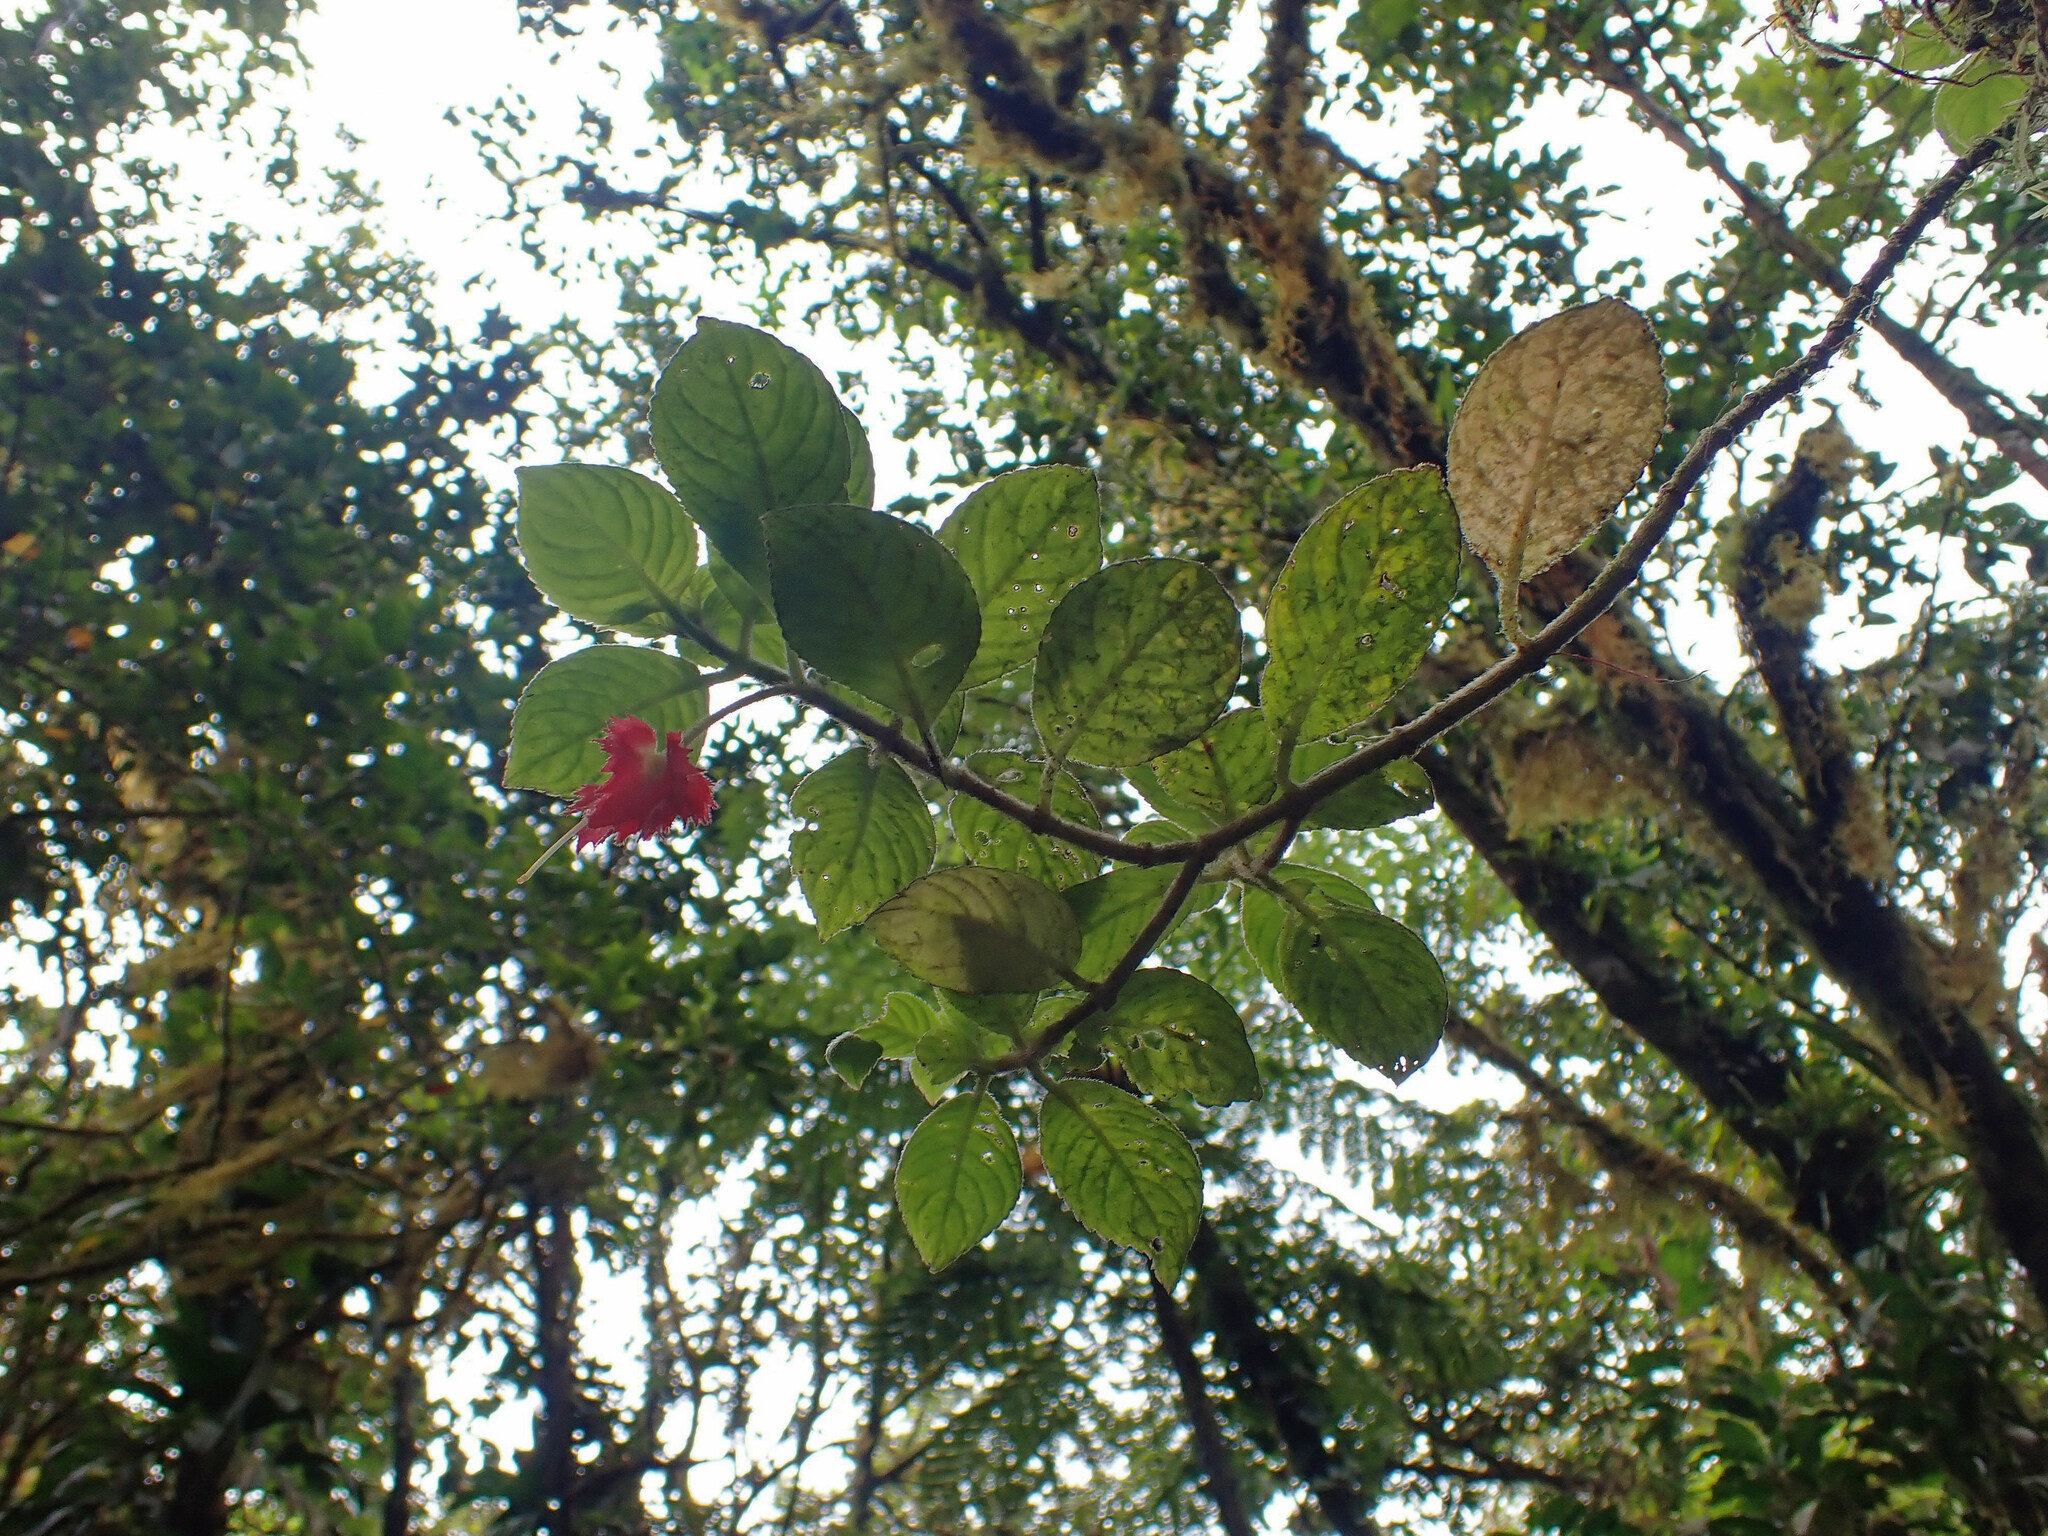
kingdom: Plantae
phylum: Tracheophyta
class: Magnoliopsida
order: Lamiales
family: Gesneriaceae
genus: Crantzia
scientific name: Crantzia cristata
